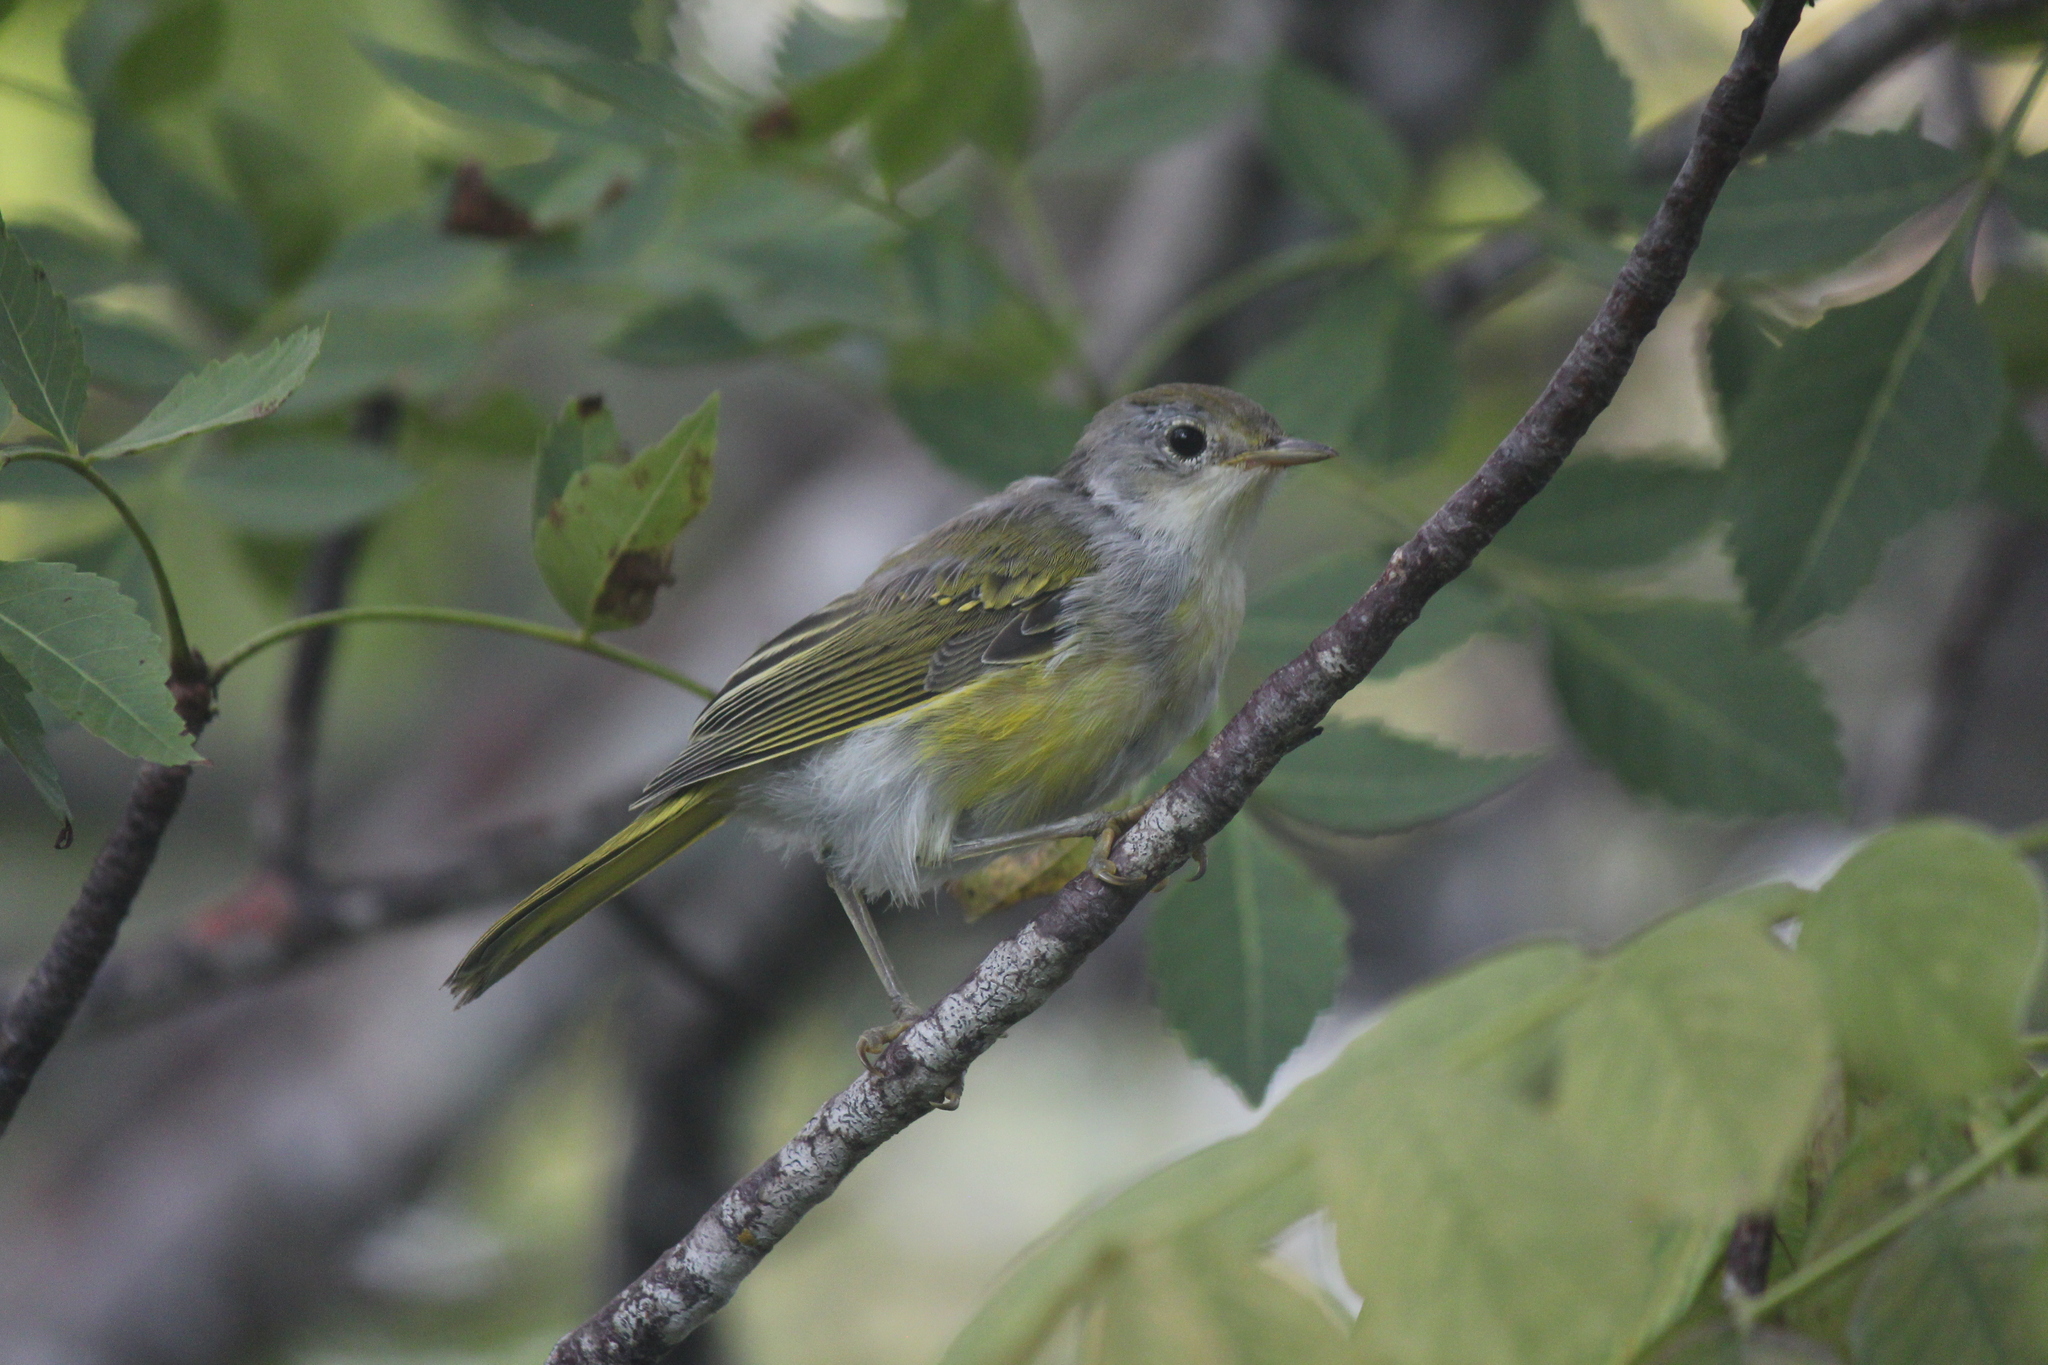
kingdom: Animalia
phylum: Chordata
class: Aves
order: Passeriformes
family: Parulidae
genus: Setophaga
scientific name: Setophaga petechia
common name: Yellow warbler
